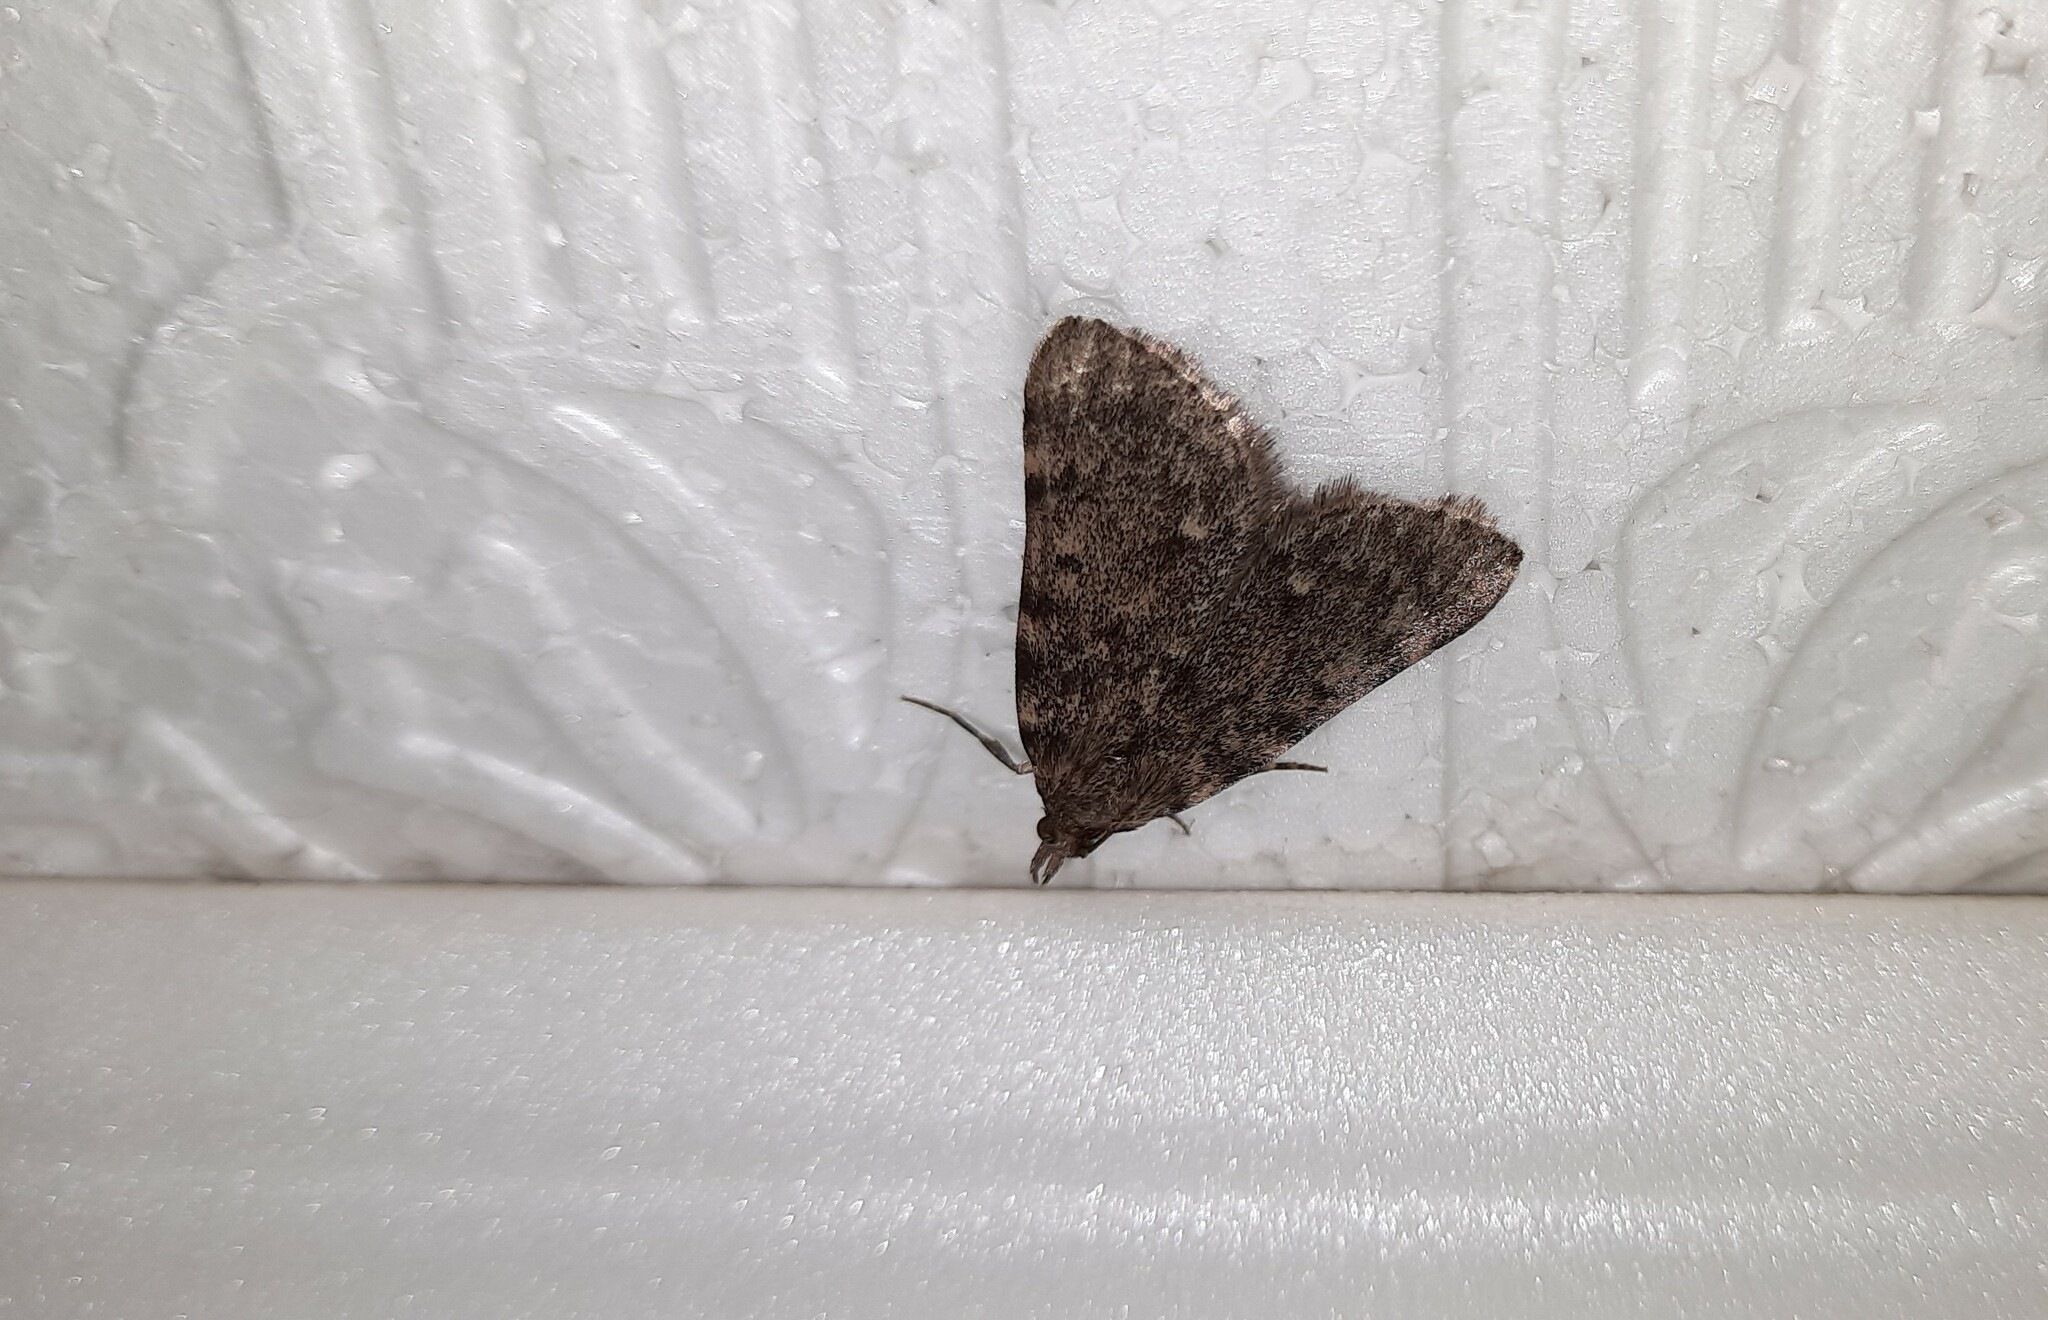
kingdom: Animalia
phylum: Arthropoda
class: Insecta
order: Lepidoptera
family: Pyralidae
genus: Aglossa
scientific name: Aglossa pinguinalis
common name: Large tabby
